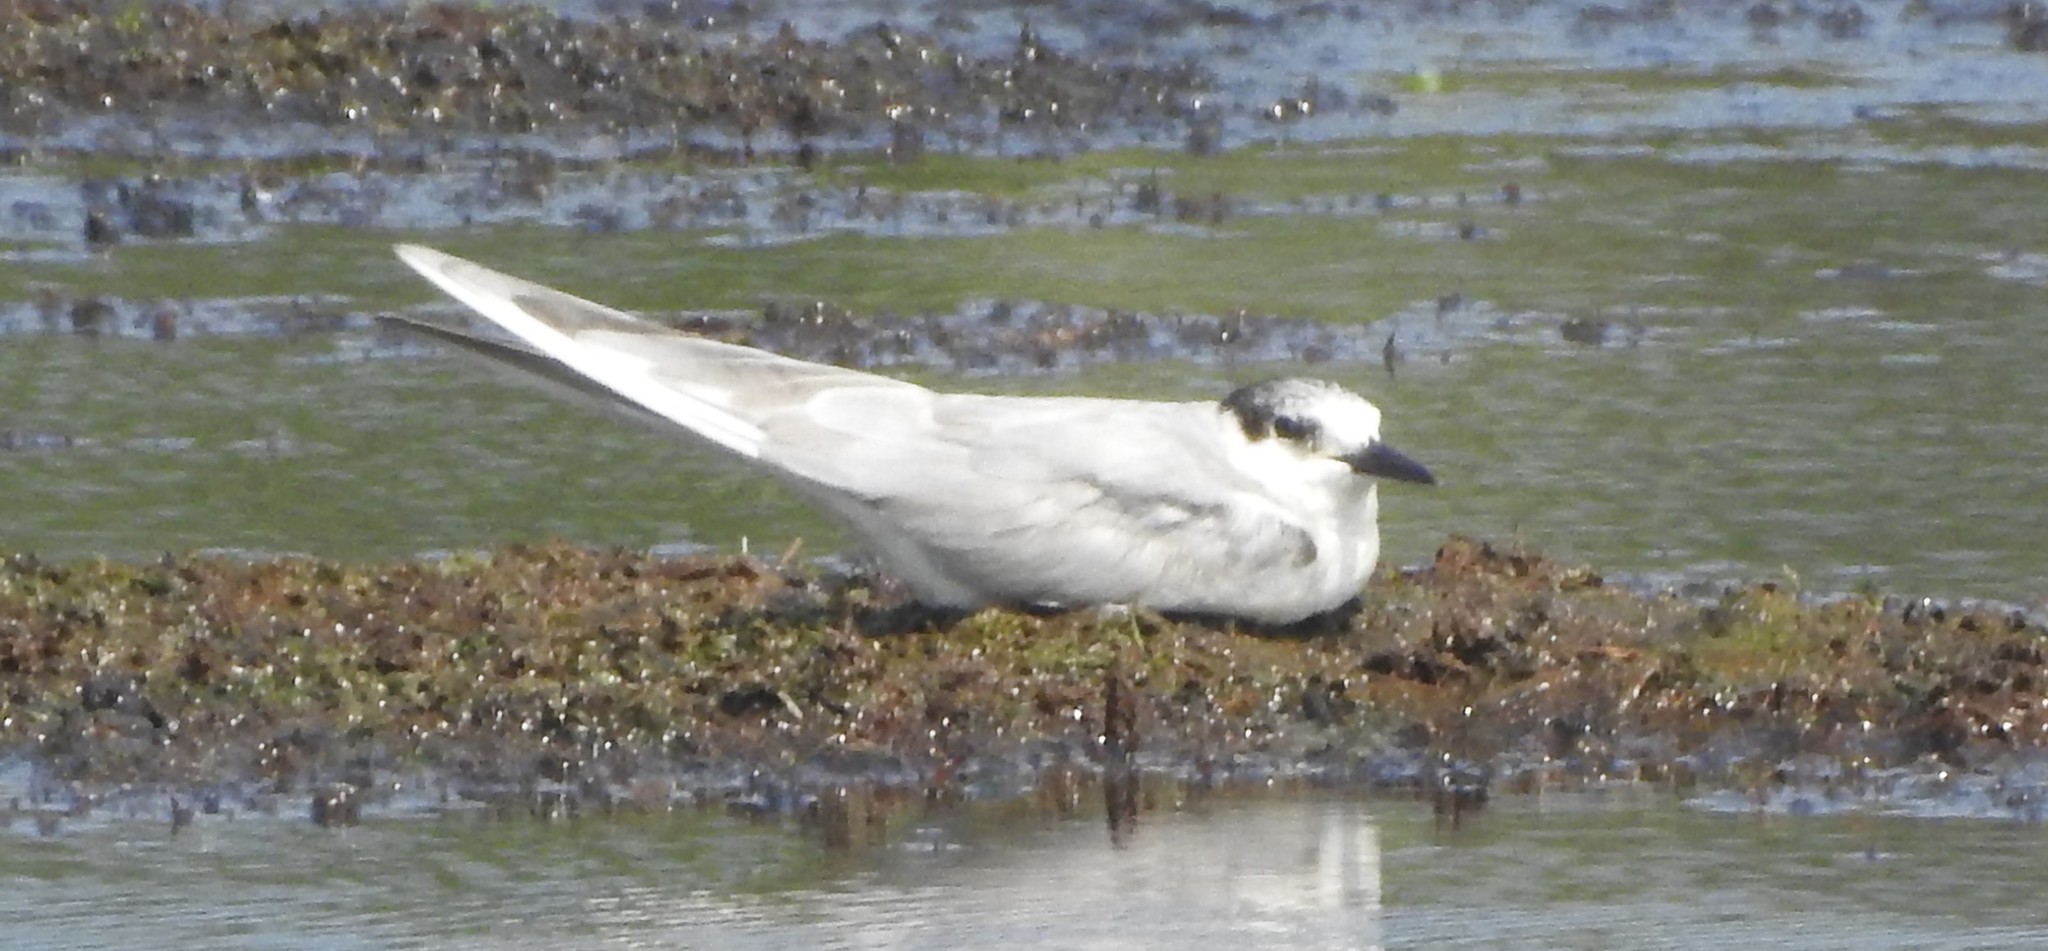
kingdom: Animalia
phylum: Chordata
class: Aves
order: Charadriiformes
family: Laridae
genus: Chlidonias
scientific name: Chlidonias hybrida
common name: Whiskered tern
